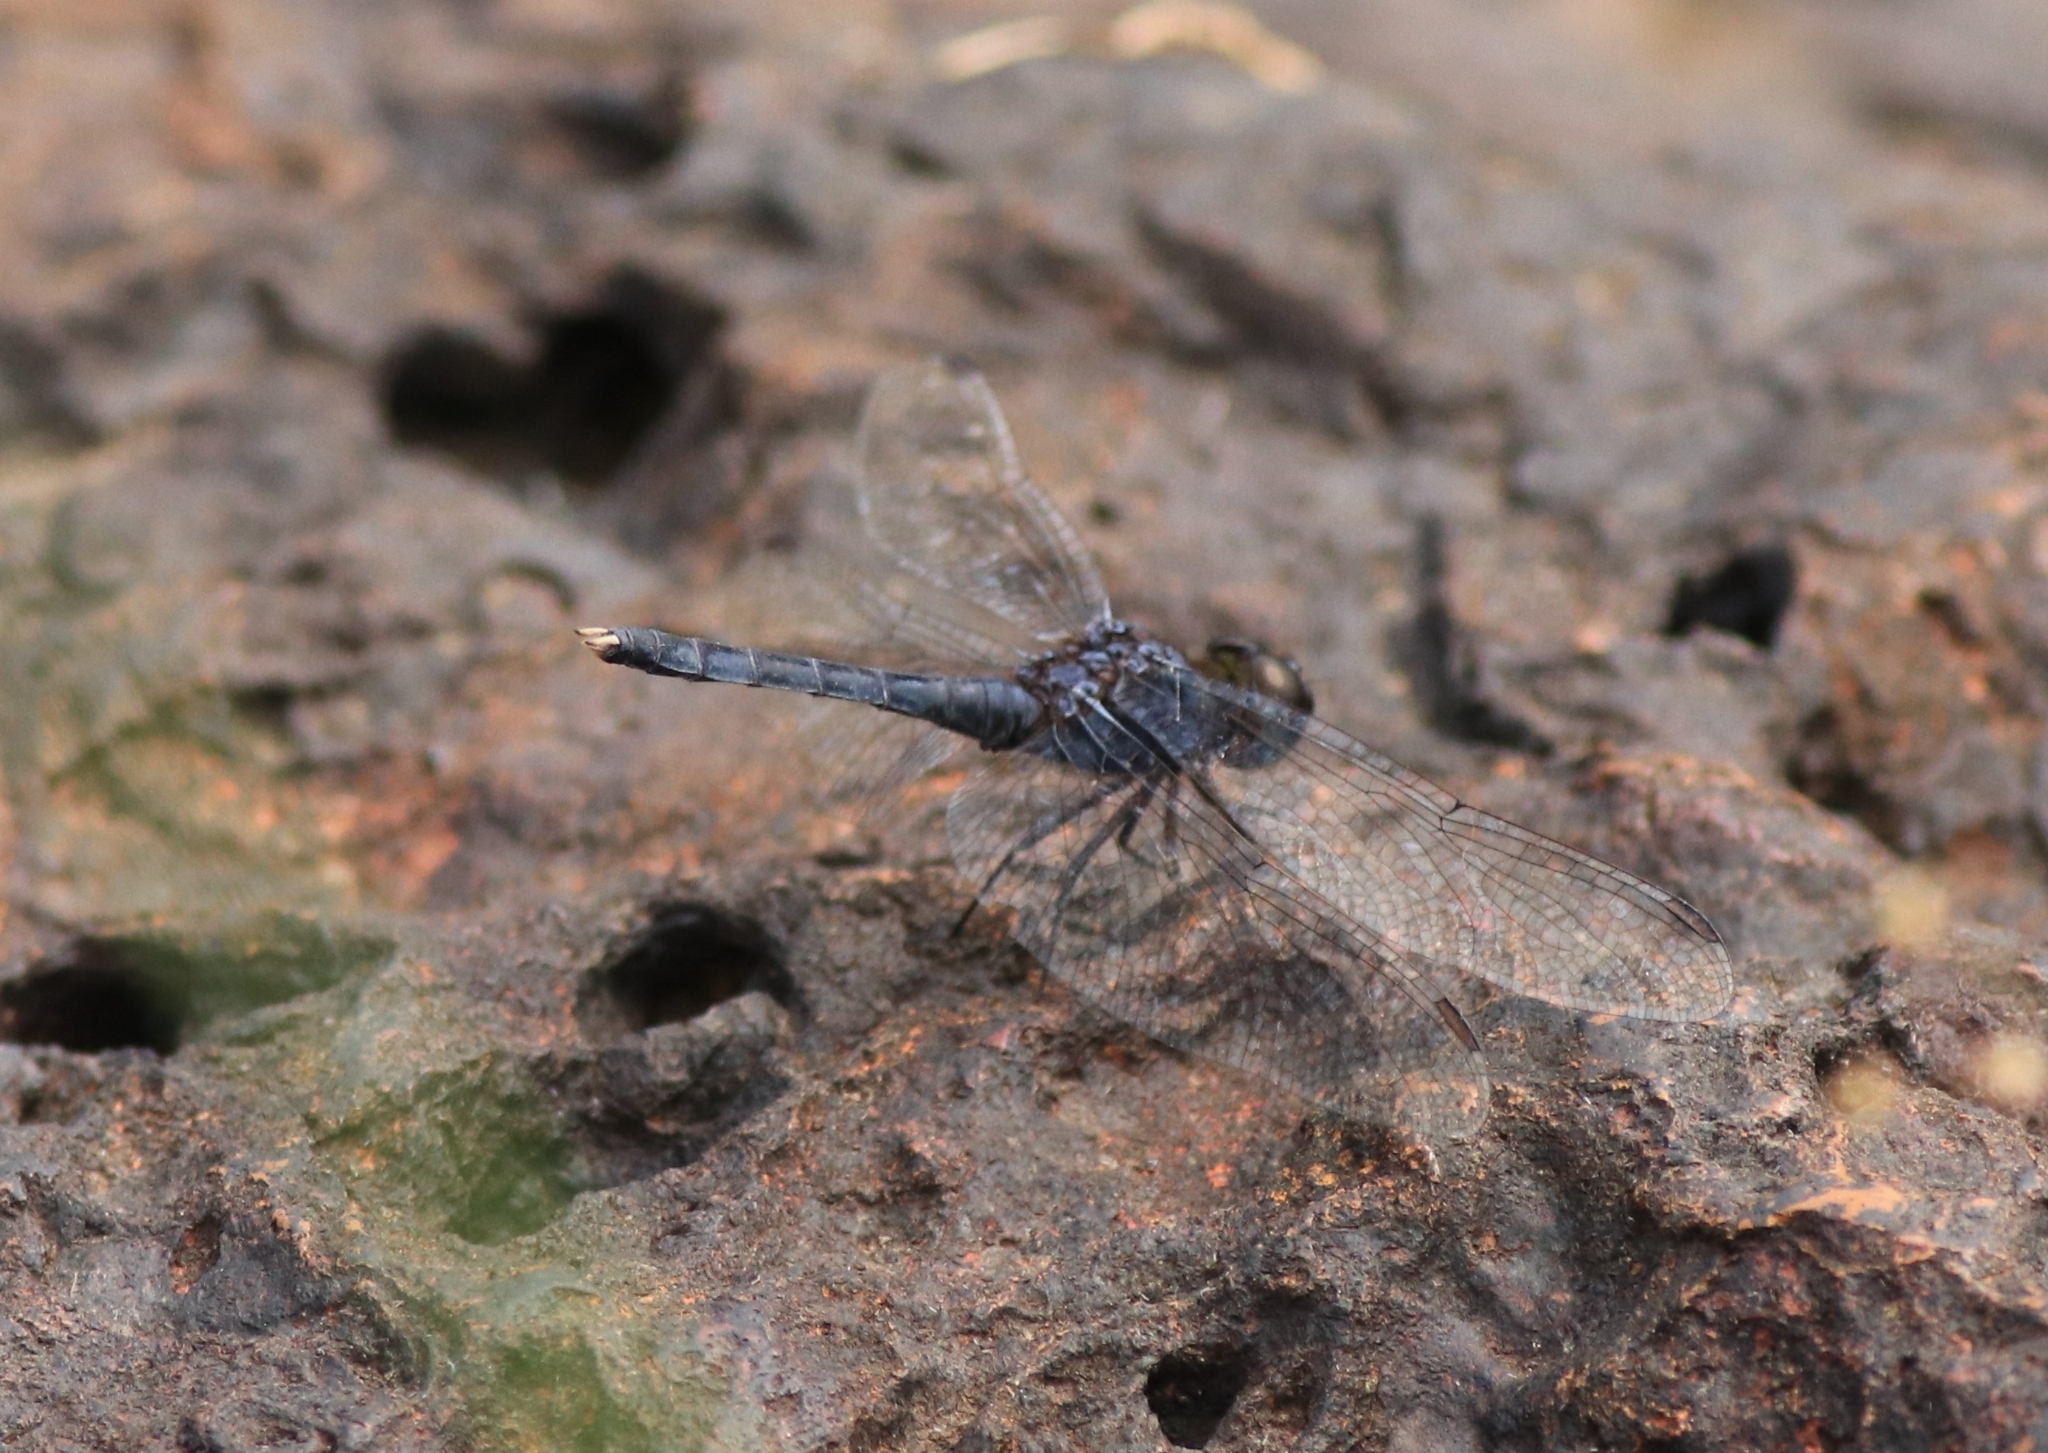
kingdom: Animalia
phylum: Arthropoda
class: Insecta
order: Odonata
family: Libellulidae
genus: Indothemis
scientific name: Indothemis carnatica
